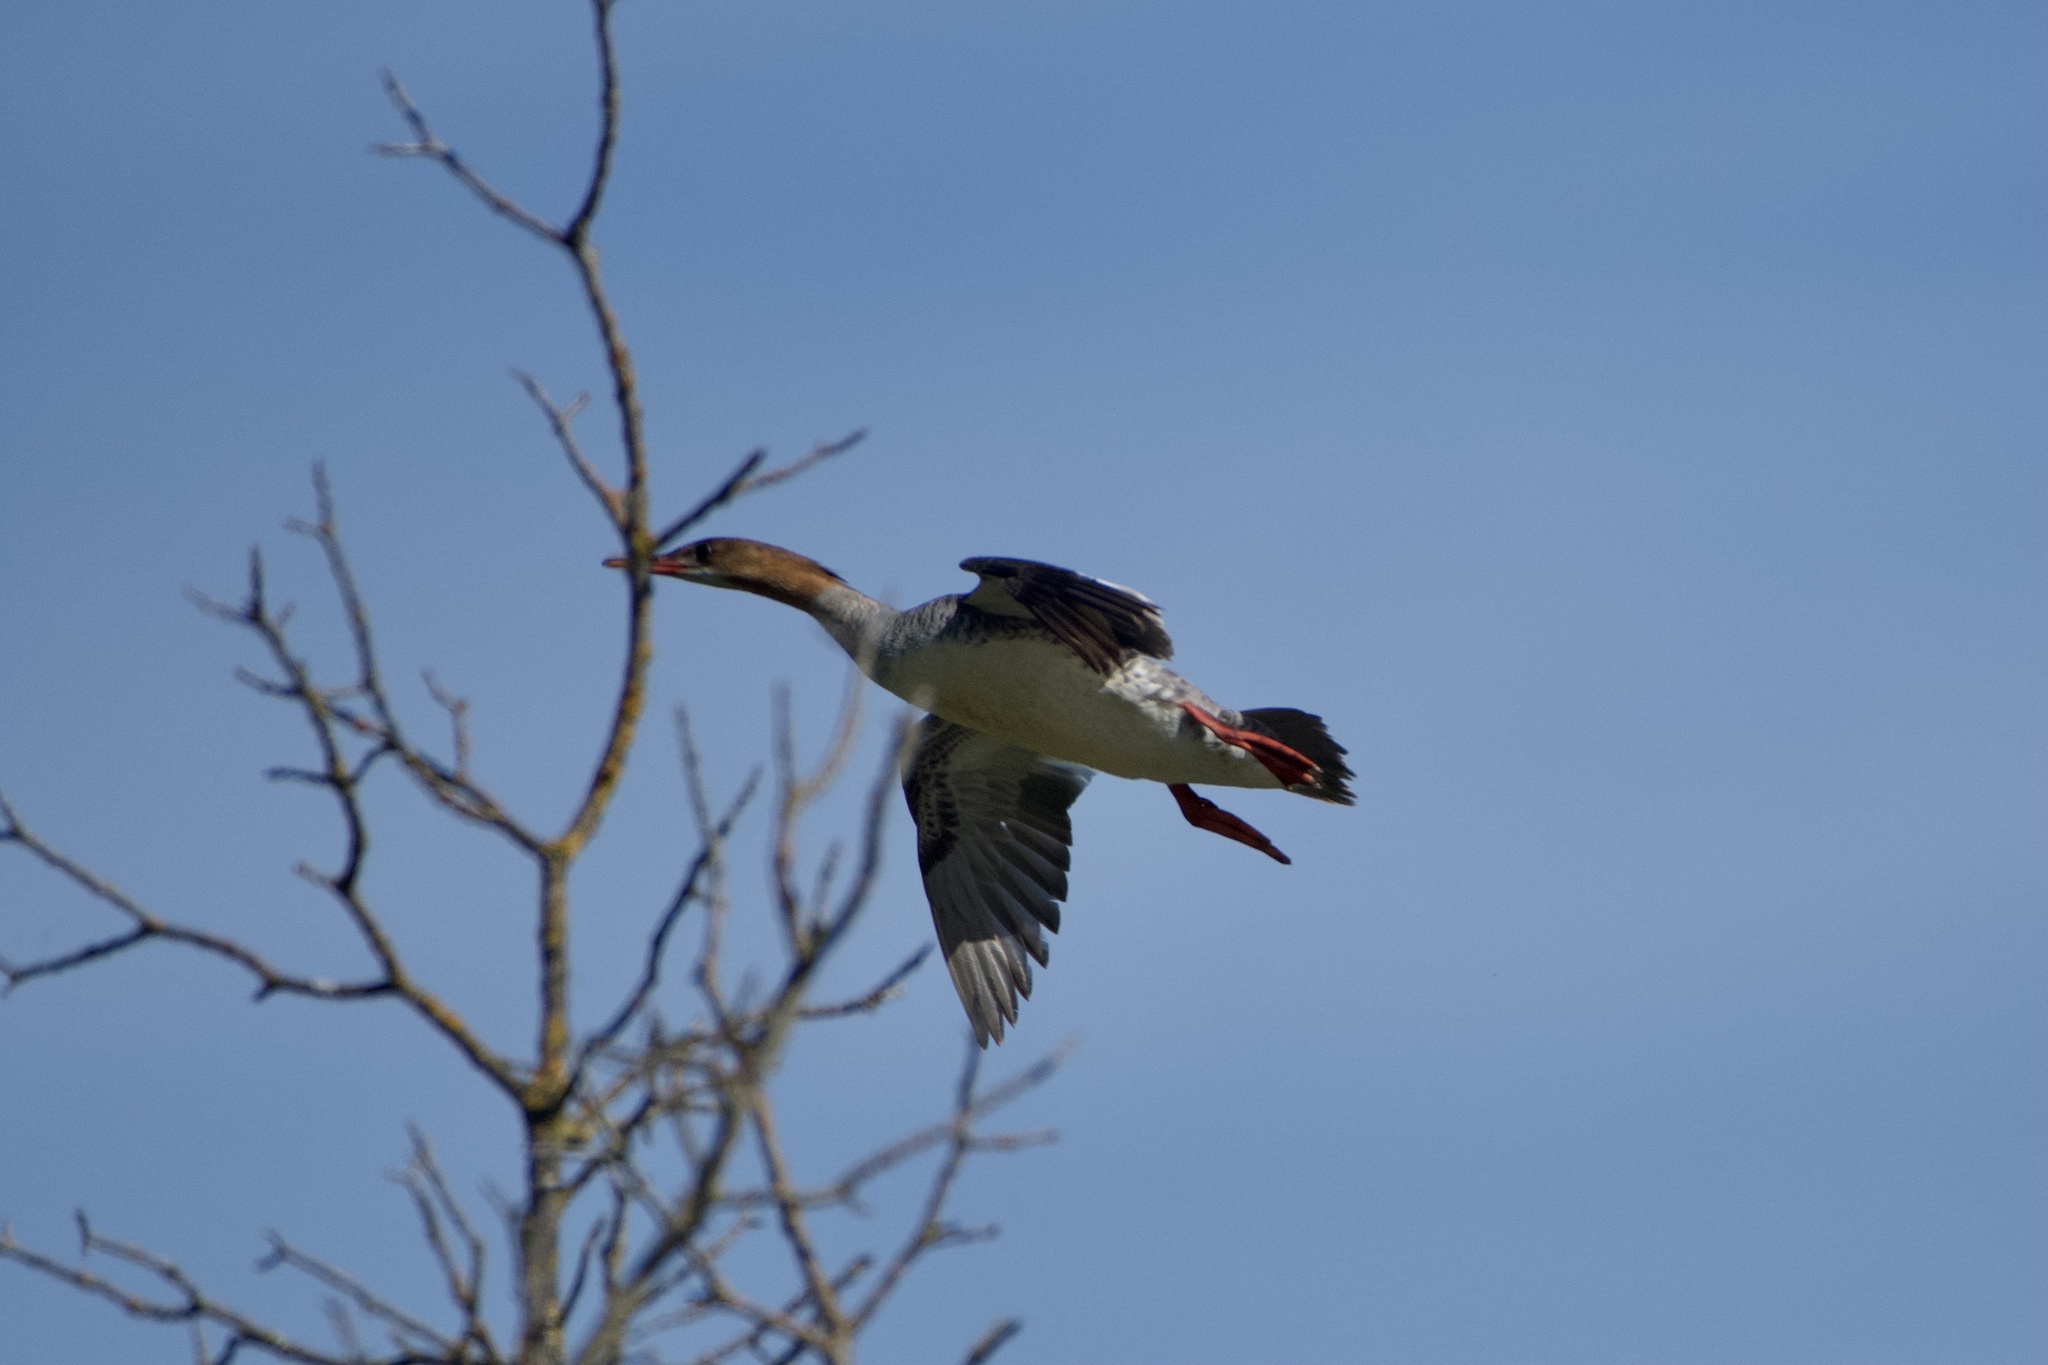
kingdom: Animalia
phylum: Chordata
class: Aves
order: Anseriformes
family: Anatidae
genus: Mergus
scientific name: Mergus merganser
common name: Common merganser
